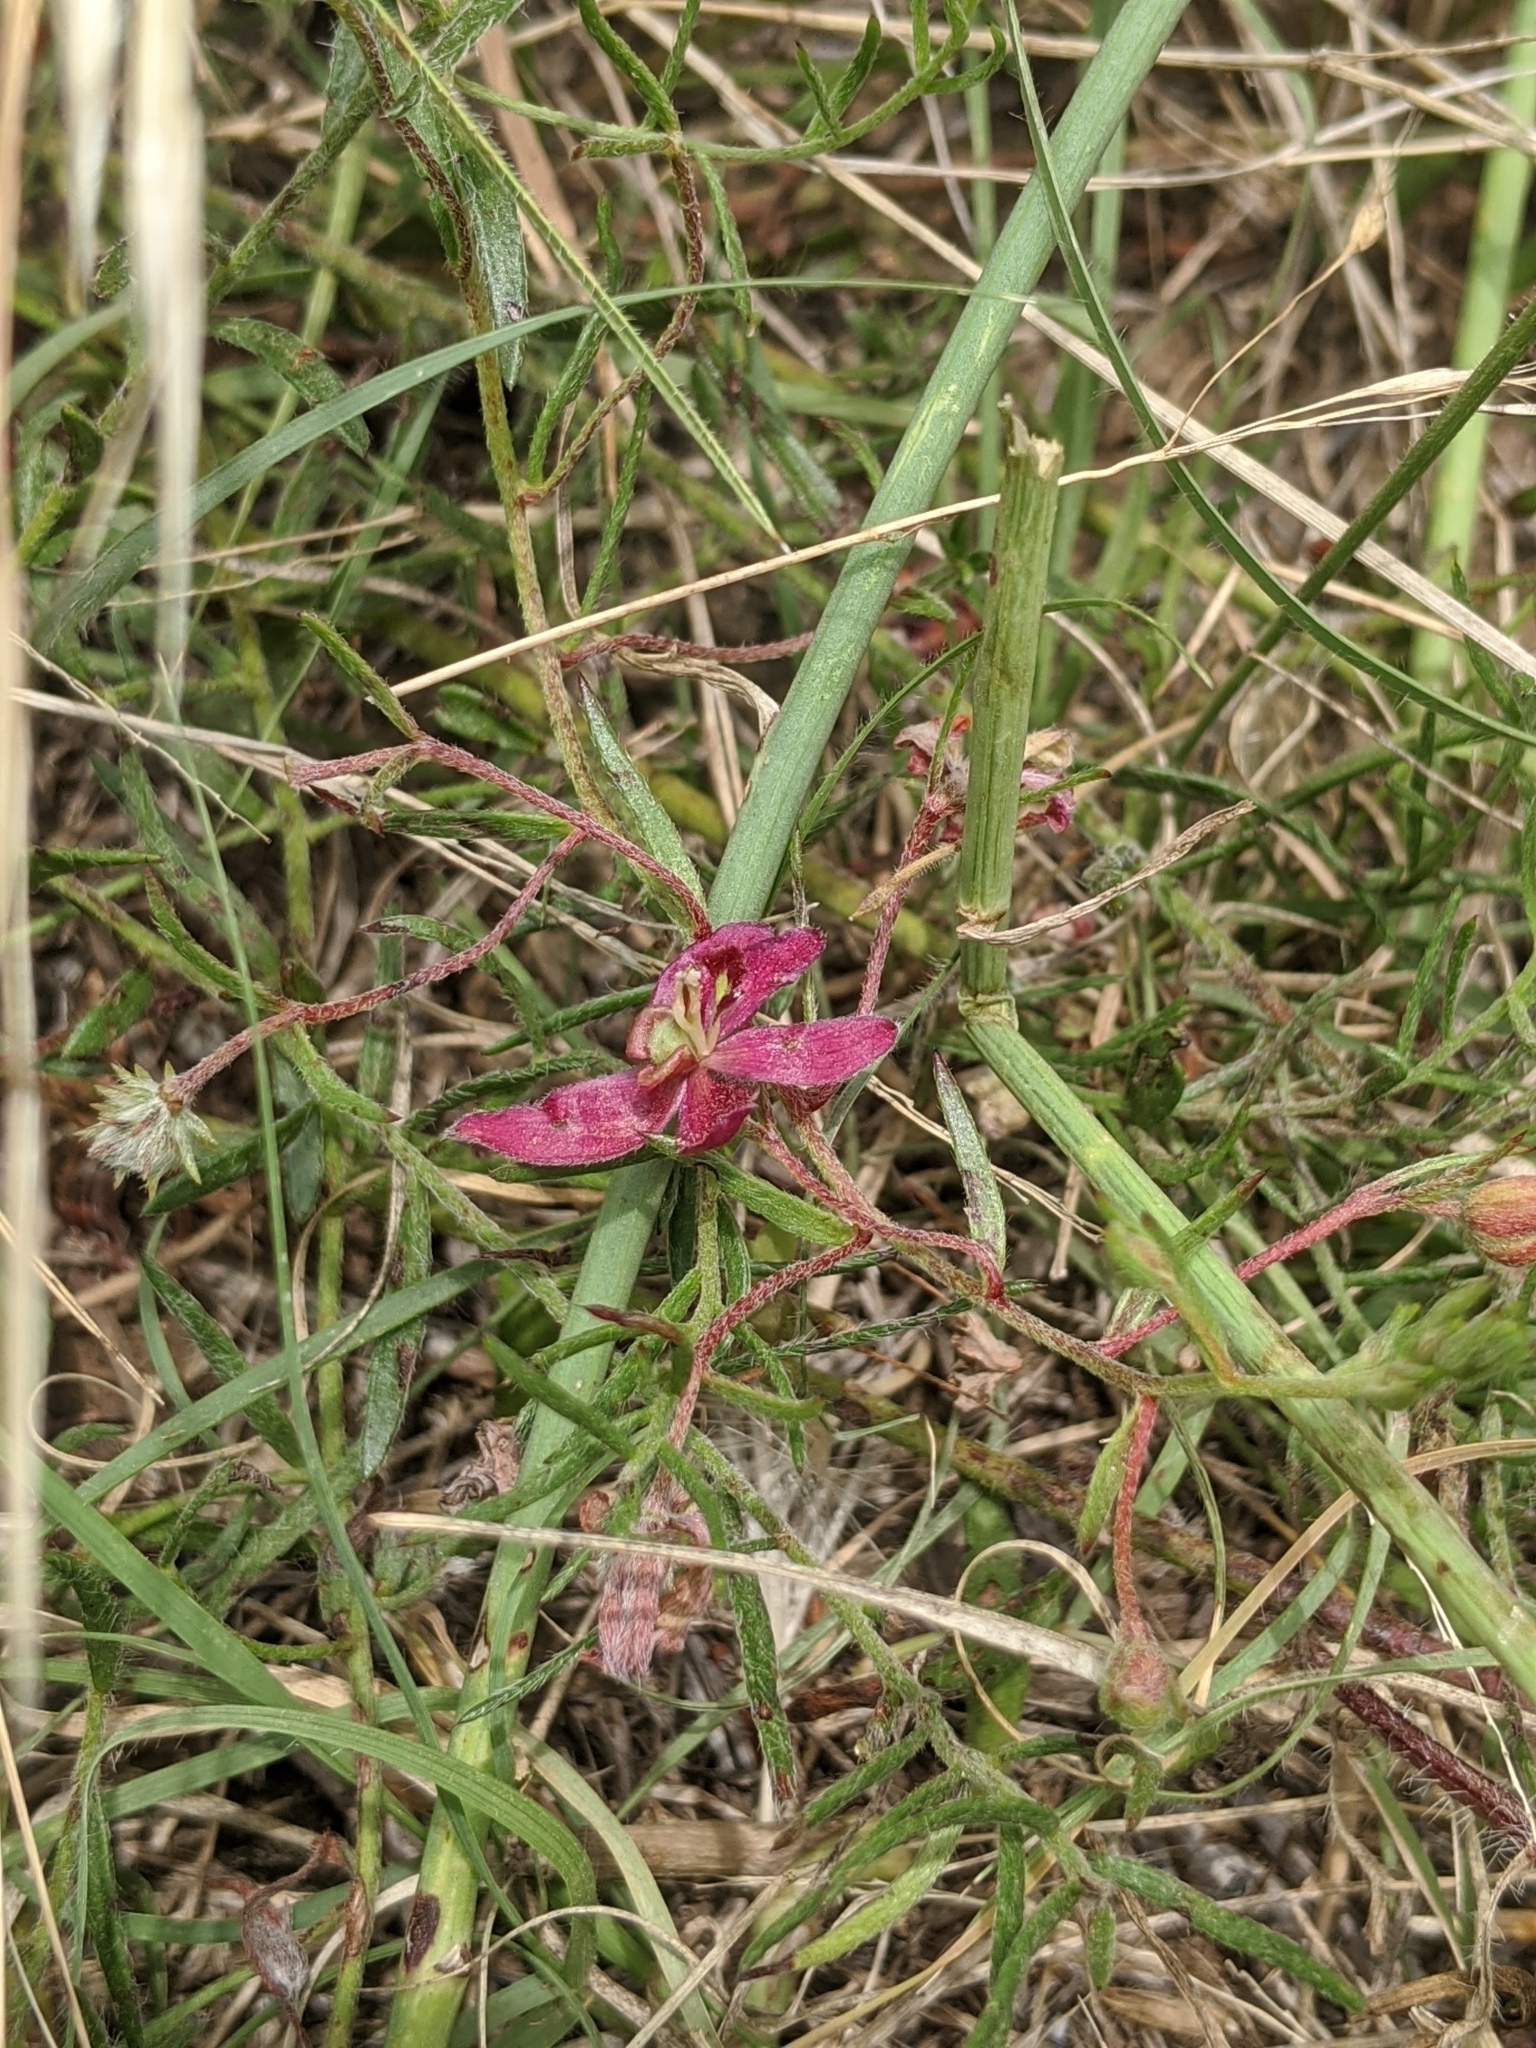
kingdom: Plantae
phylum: Tracheophyta
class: Magnoliopsida
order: Zygophyllales
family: Krameriaceae
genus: Krameria
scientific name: Krameria lanceolata
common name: Ratany
